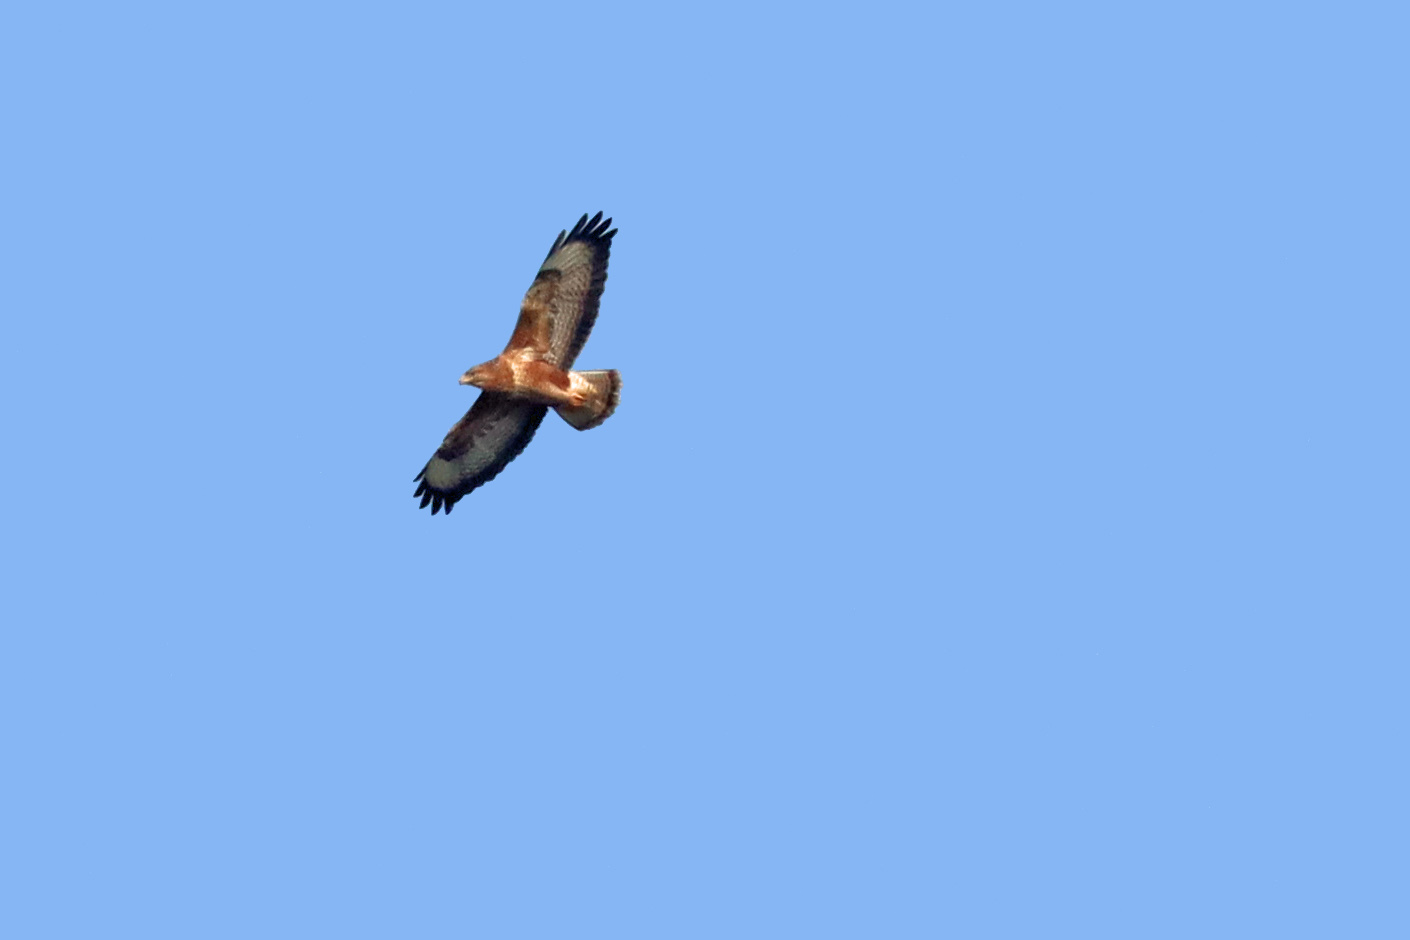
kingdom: Animalia
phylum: Chordata
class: Aves
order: Accipitriformes
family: Accipitridae
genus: Buteo
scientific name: Buteo buteo
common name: Common buzzard
